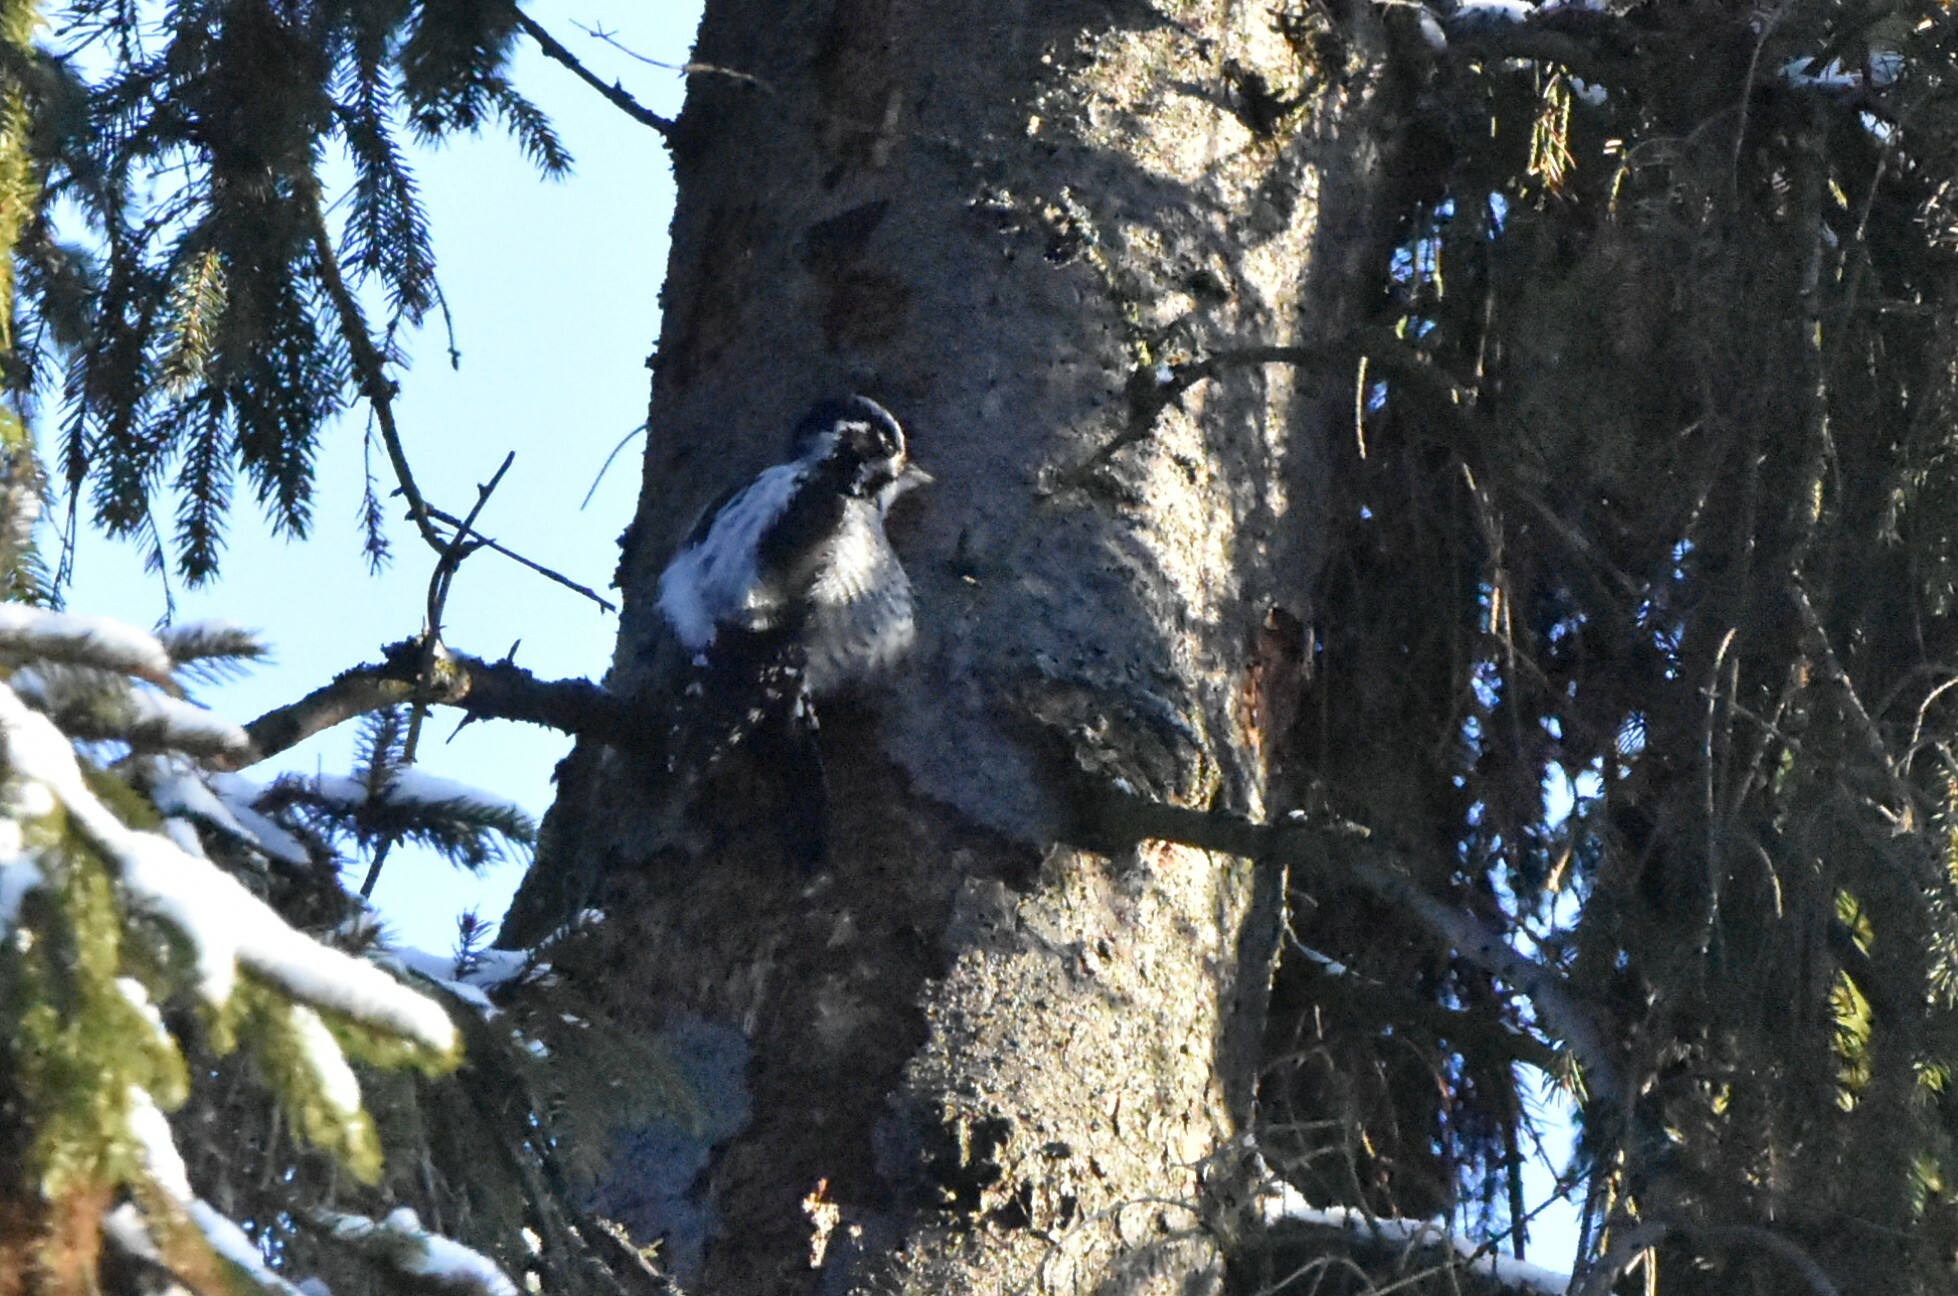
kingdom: Animalia
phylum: Chordata
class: Aves
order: Piciformes
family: Picidae
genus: Picoides
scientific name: Picoides tridactylus
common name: Eurasian three-toed woodpecker
